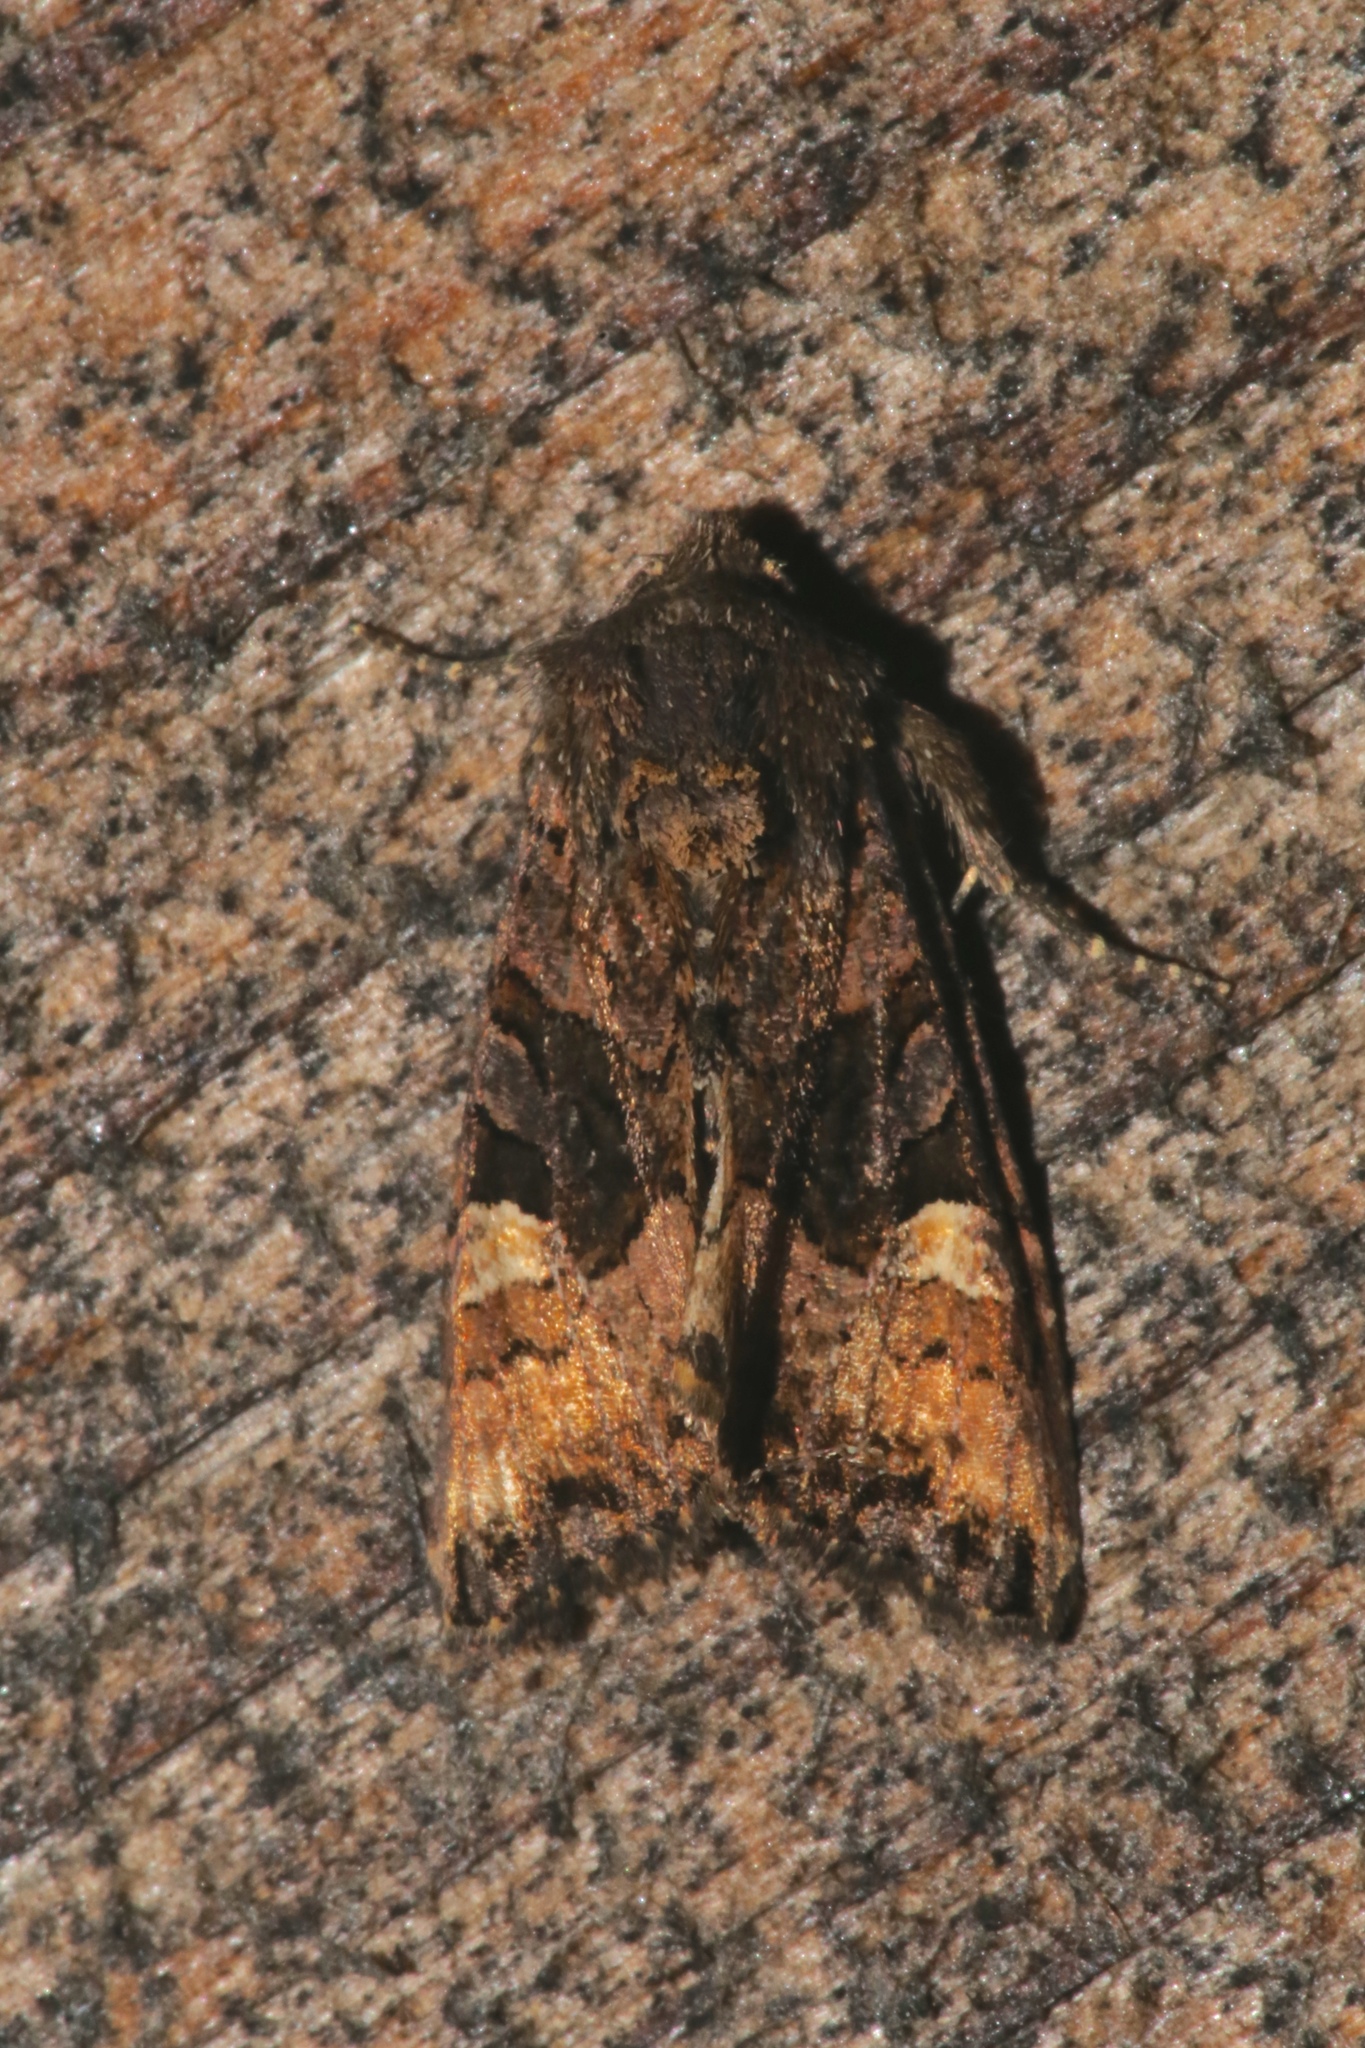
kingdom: Animalia
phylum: Arthropoda
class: Insecta
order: Lepidoptera
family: Noctuidae
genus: Euplexia
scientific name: Euplexia benesimilis
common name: American angle shades
